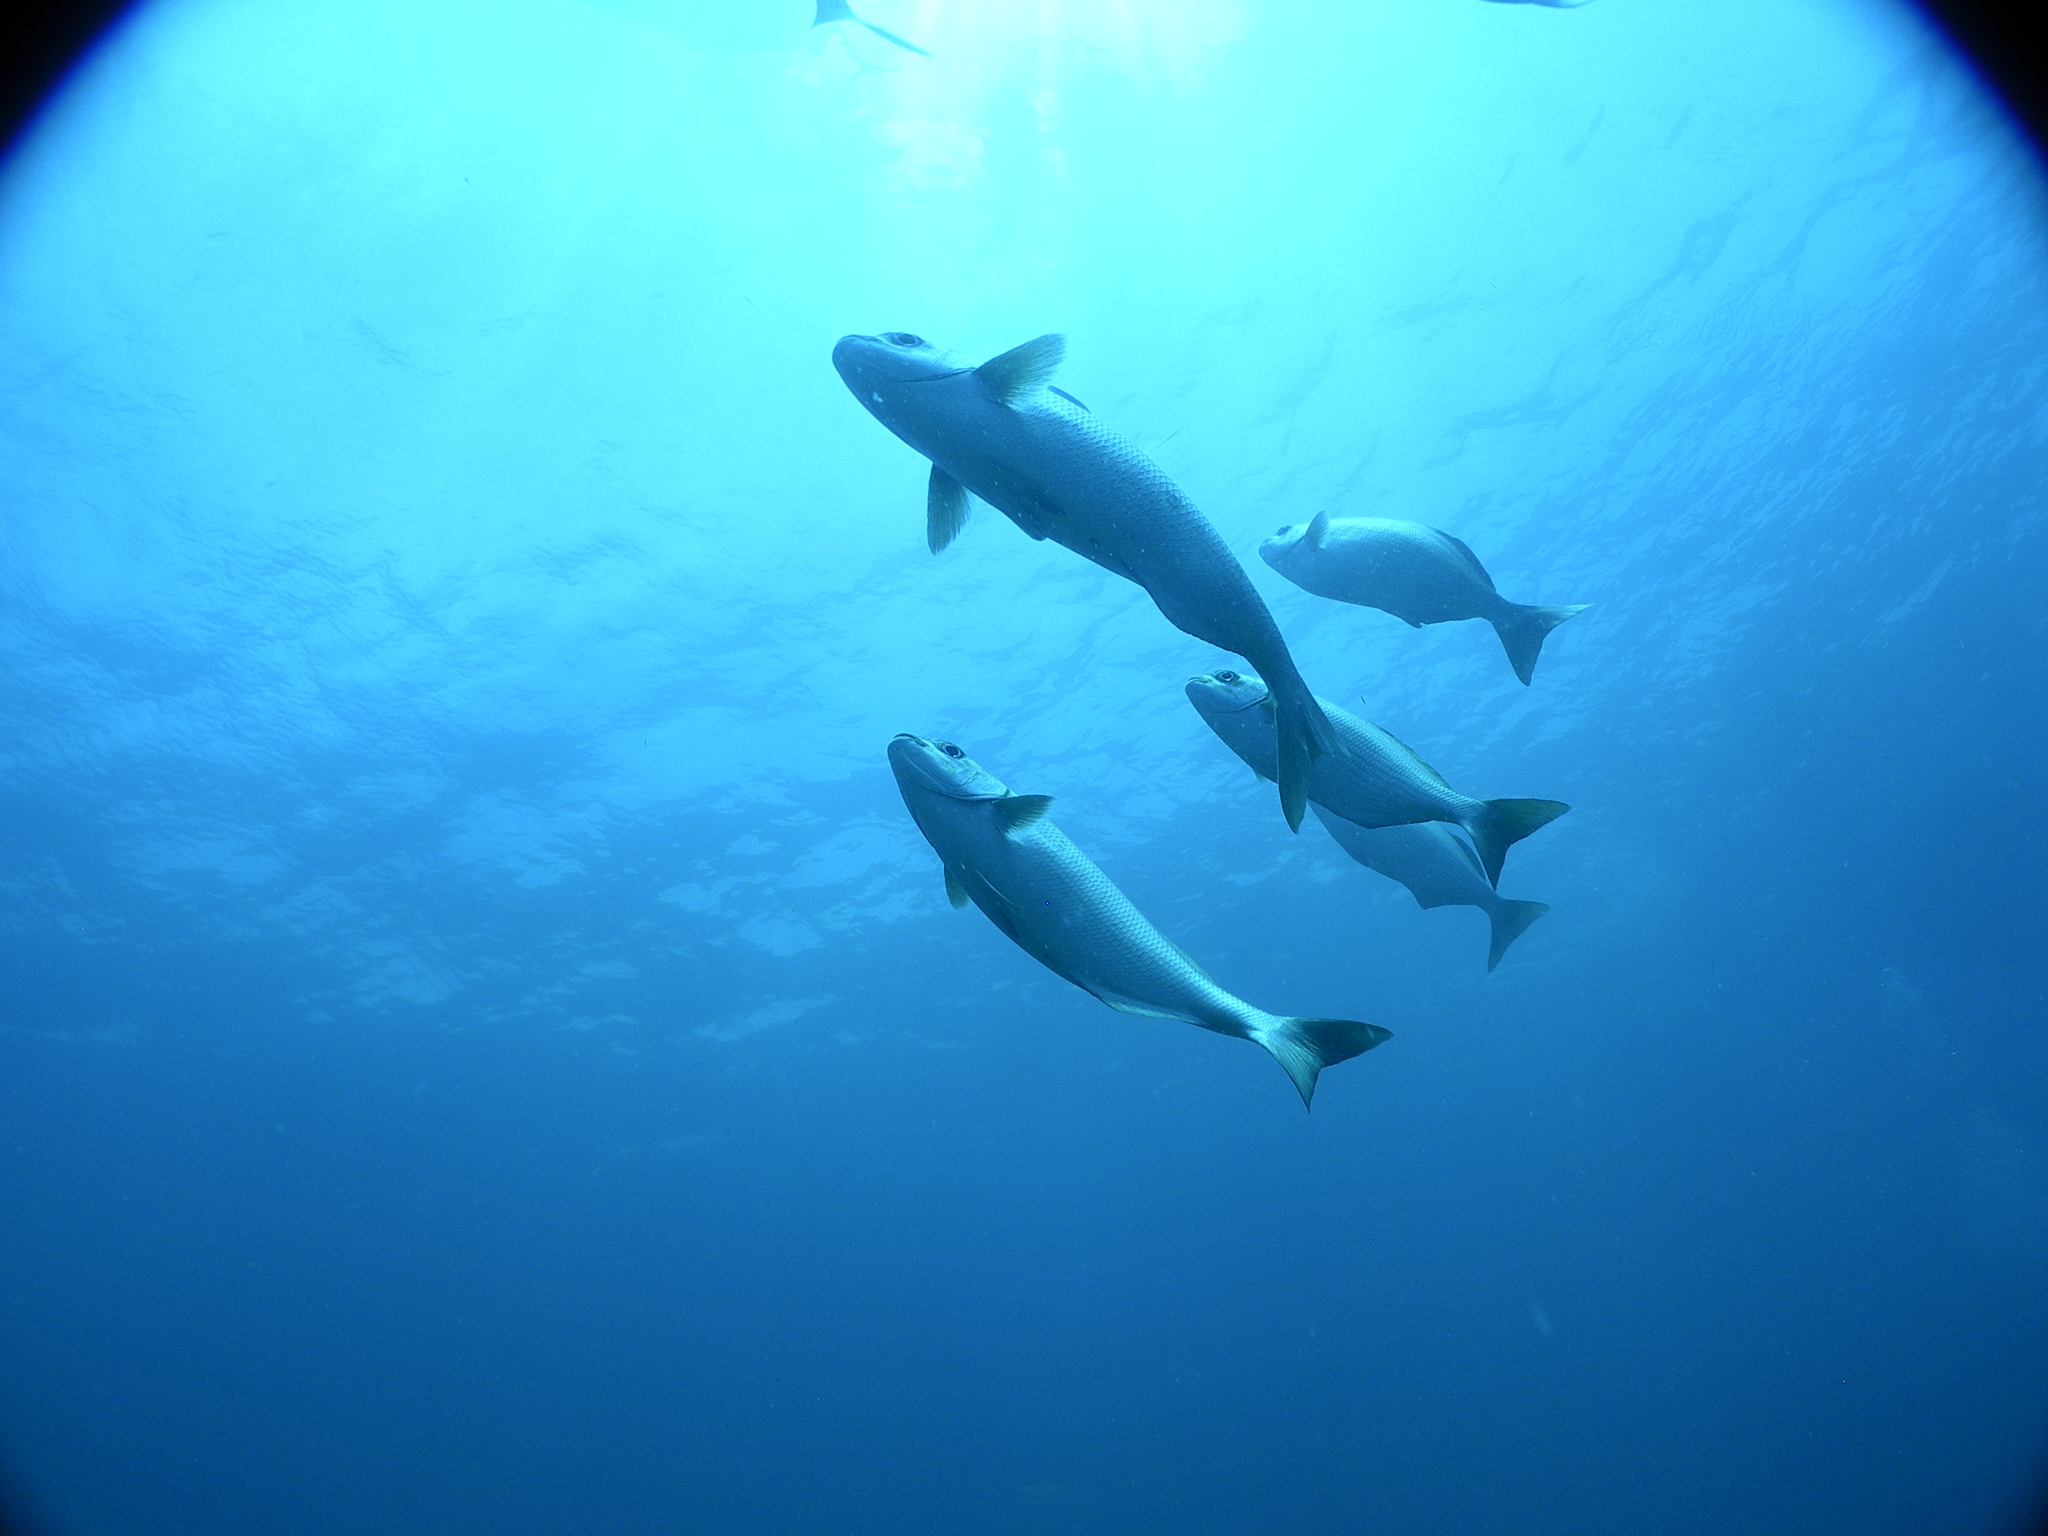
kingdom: Animalia
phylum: Chordata
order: Perciformes
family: Kyphosidae
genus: Kyphosus
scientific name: Kyphosus
